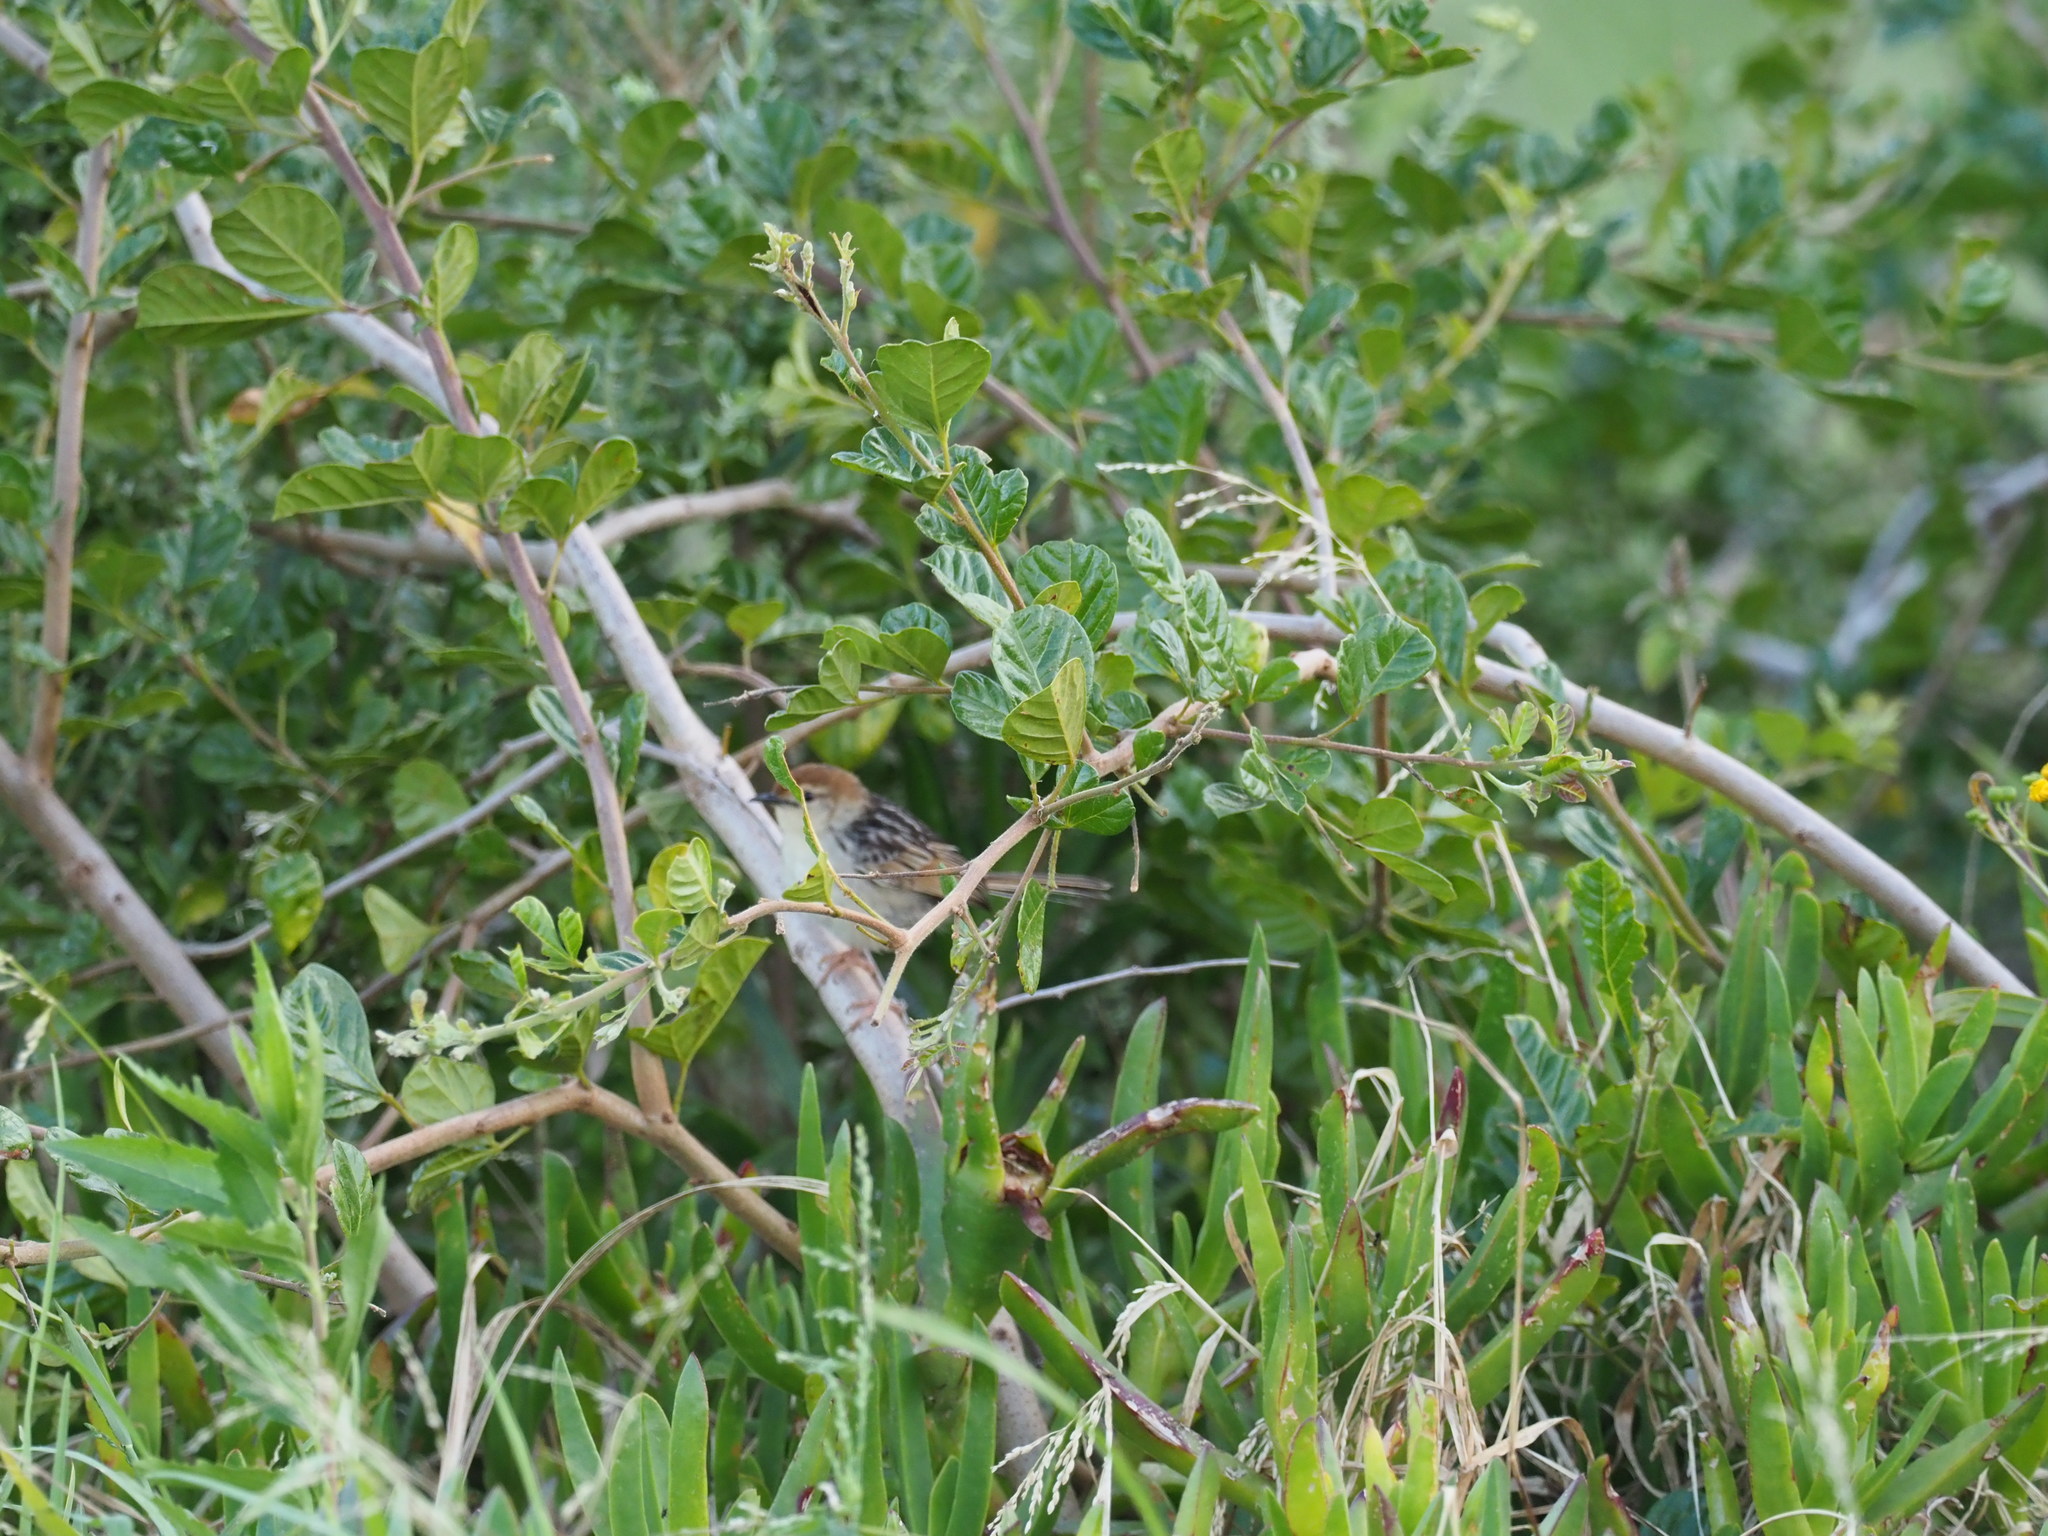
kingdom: Animalia
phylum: Chordata
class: Aves
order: Passeriformes
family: Cisticolidae
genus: Cisticola
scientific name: Cisticola tinniens
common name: Levaillant's cisticola
